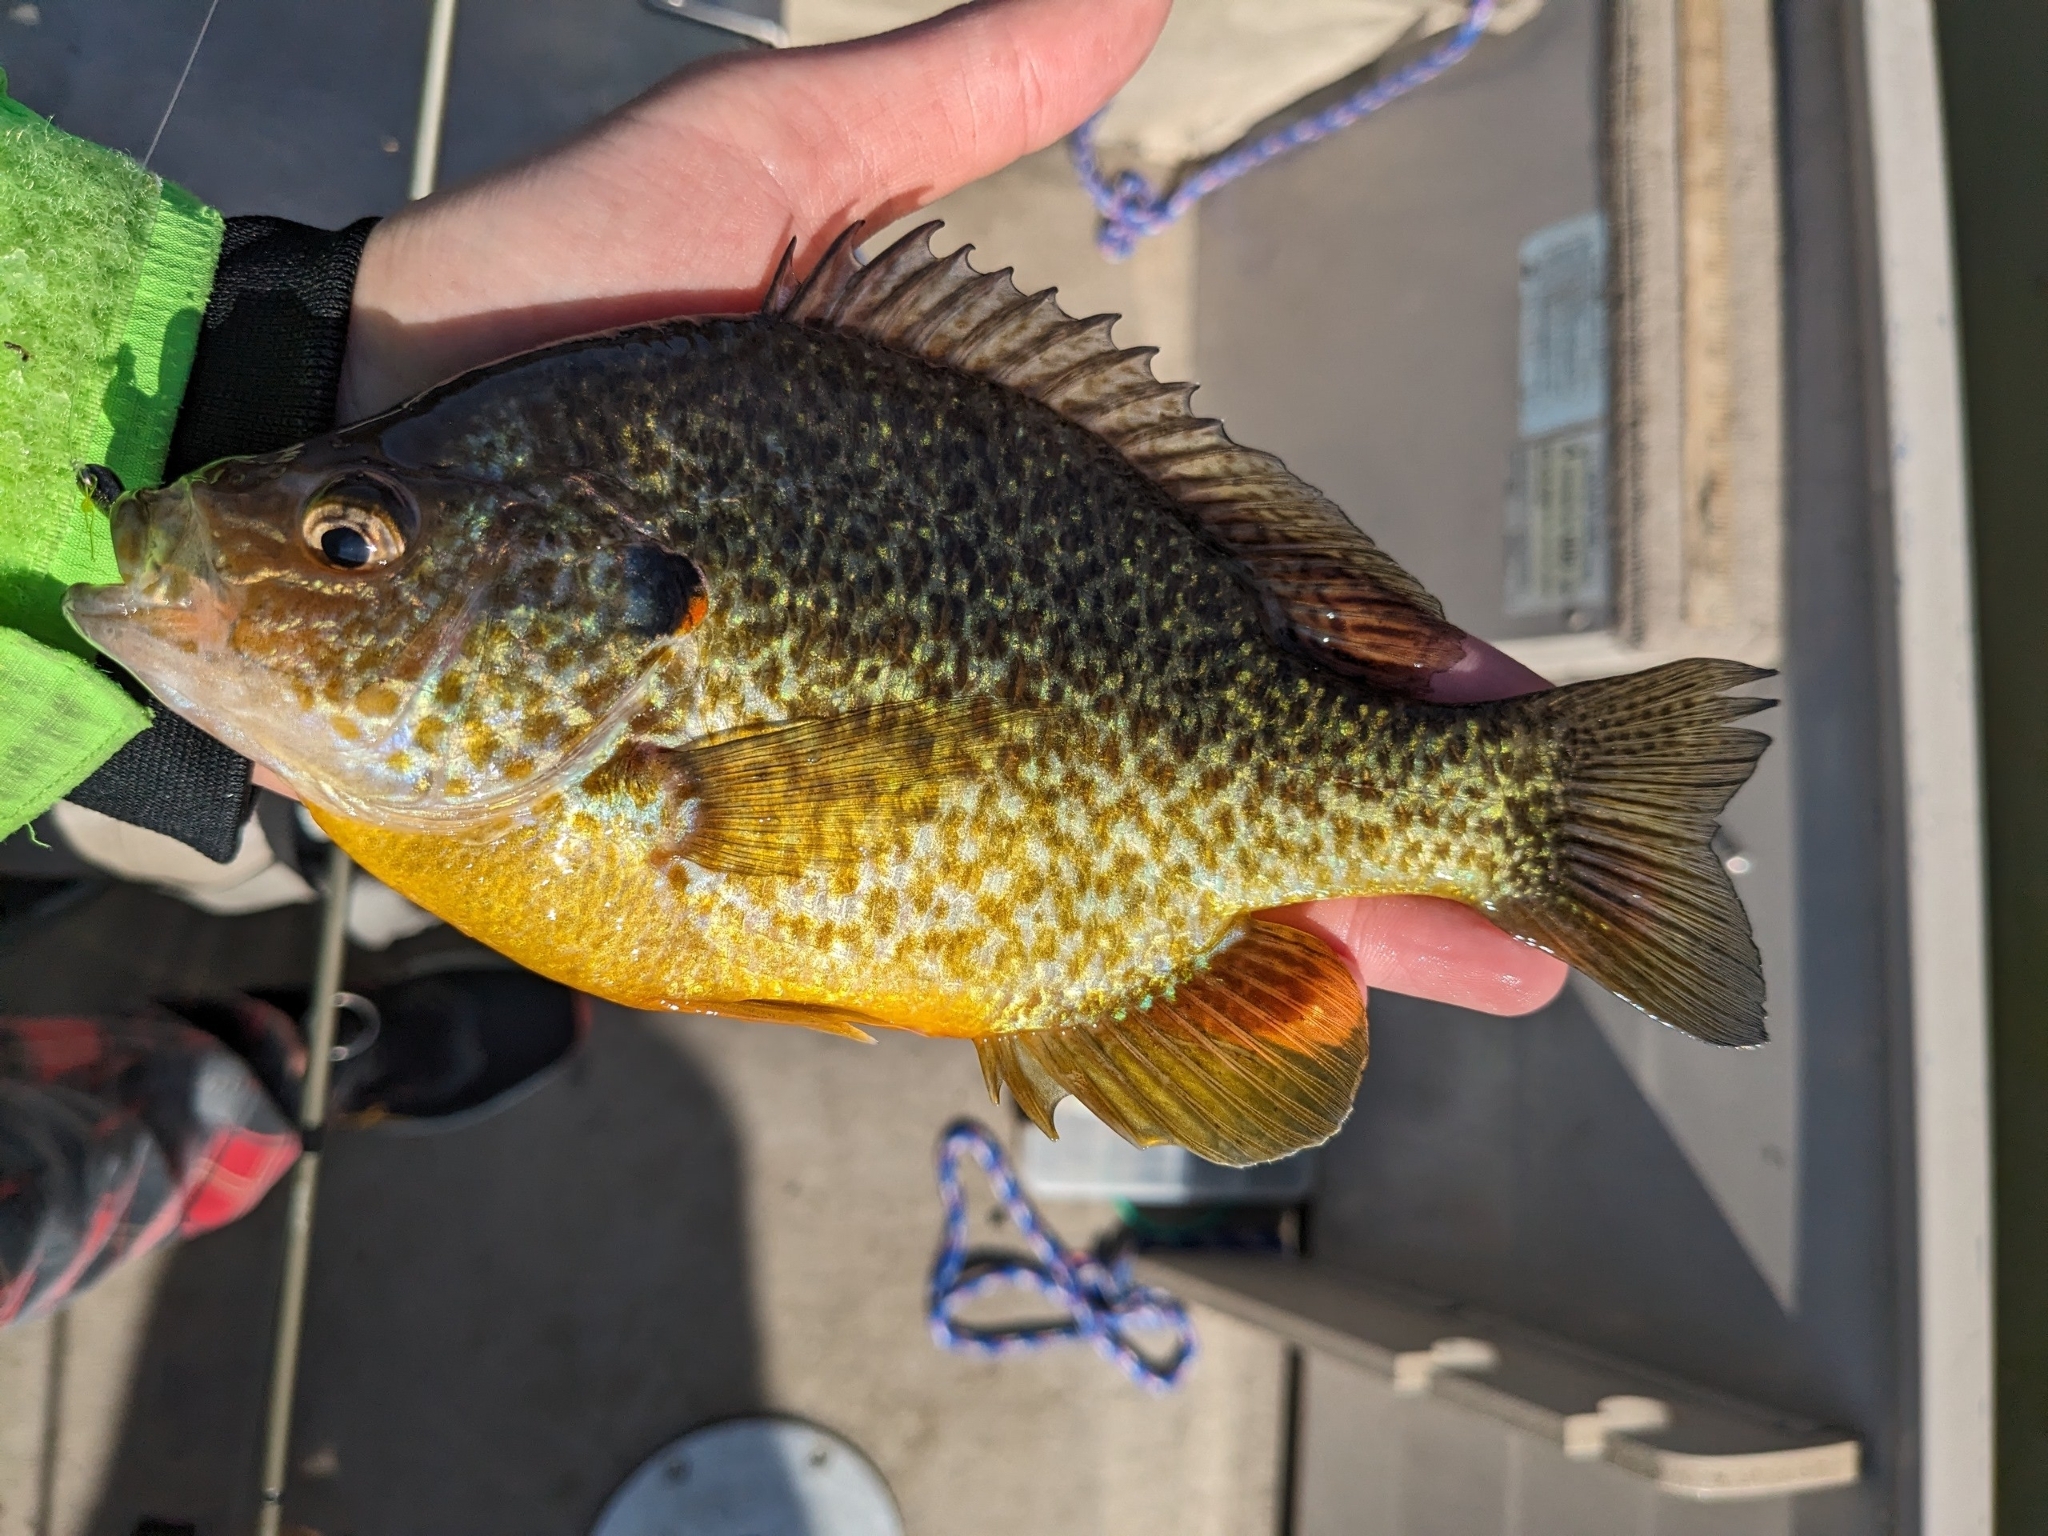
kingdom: Animalia
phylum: Chordata
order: Perciformes
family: Centrarchidae
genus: Lepomis
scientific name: Lepomis gibbosus
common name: Pumpkinseed
